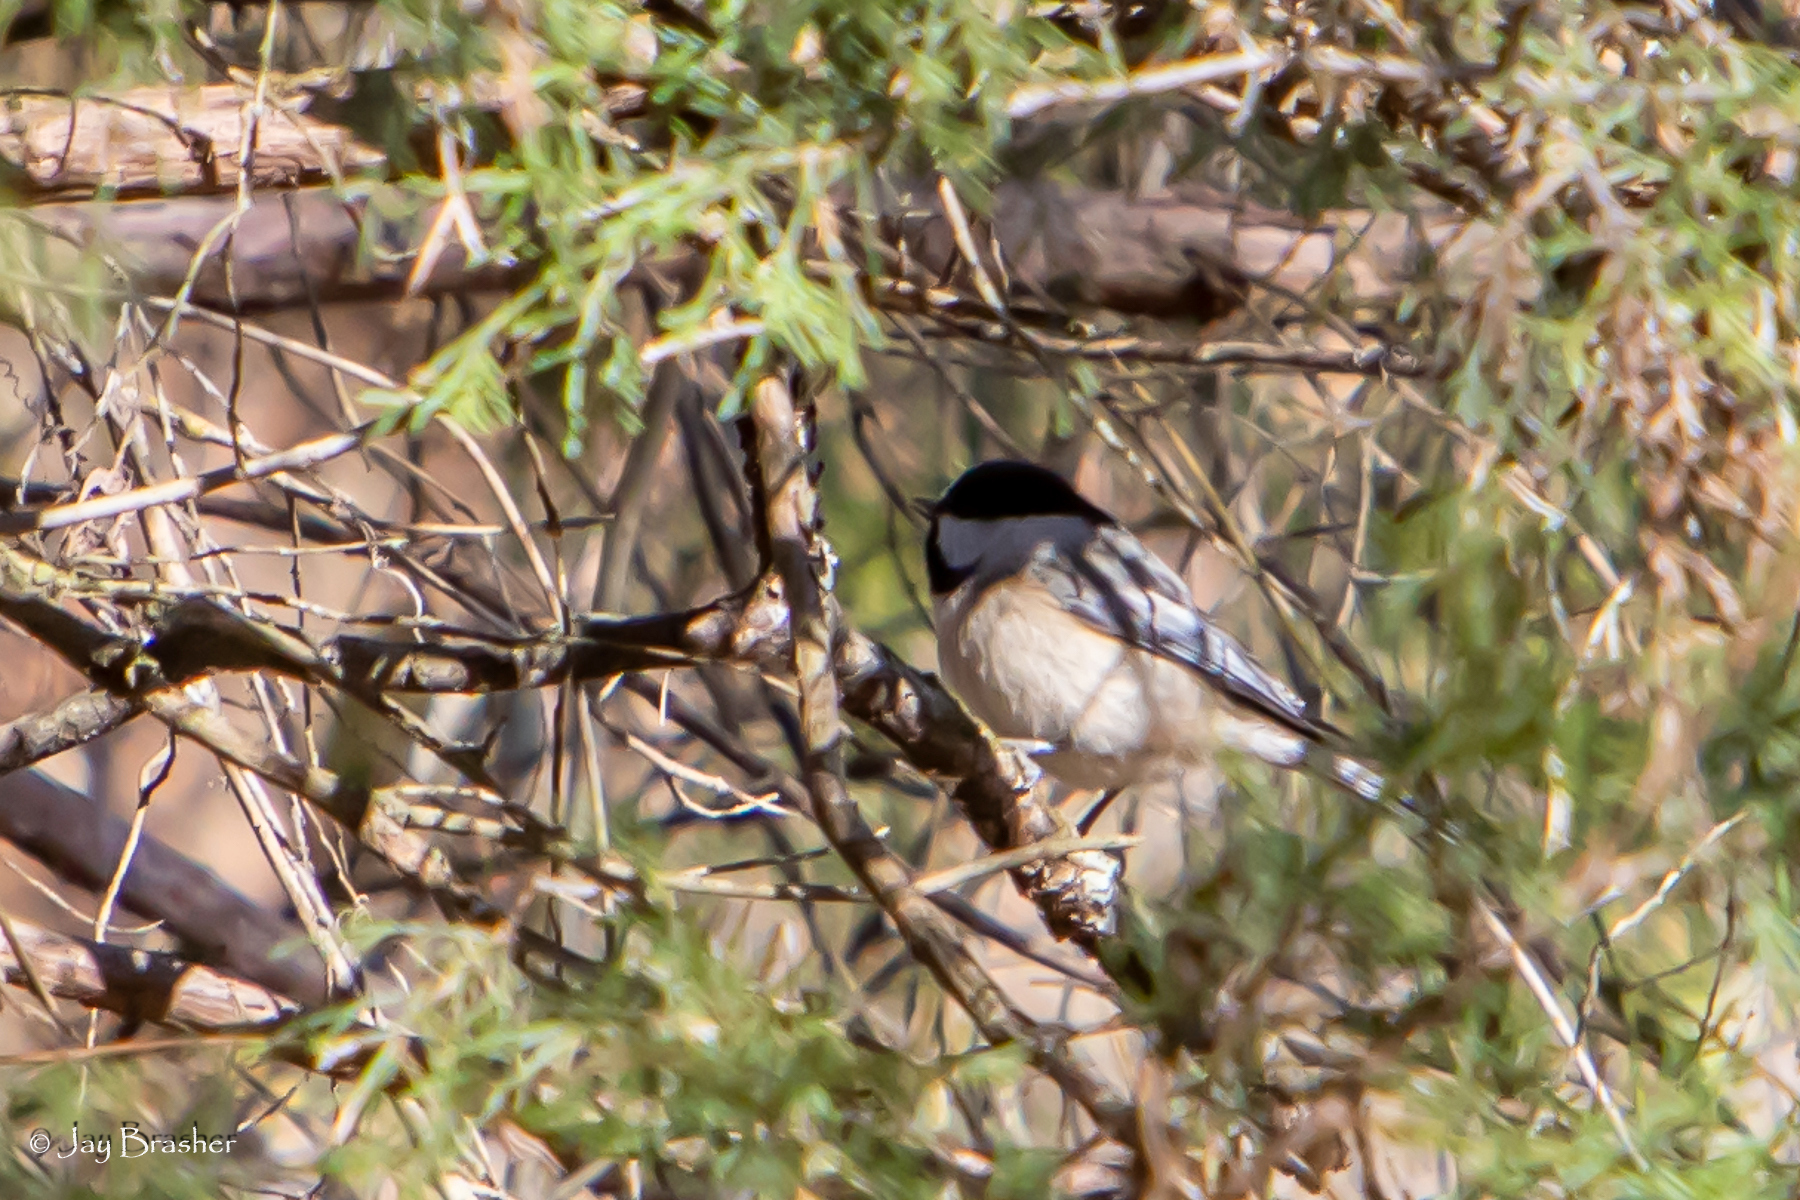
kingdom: Animalia
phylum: Chordata
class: Aves
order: Passeriformes
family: Paridae
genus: Poecile
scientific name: Poecile carolinensis
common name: Carolina chickadee
